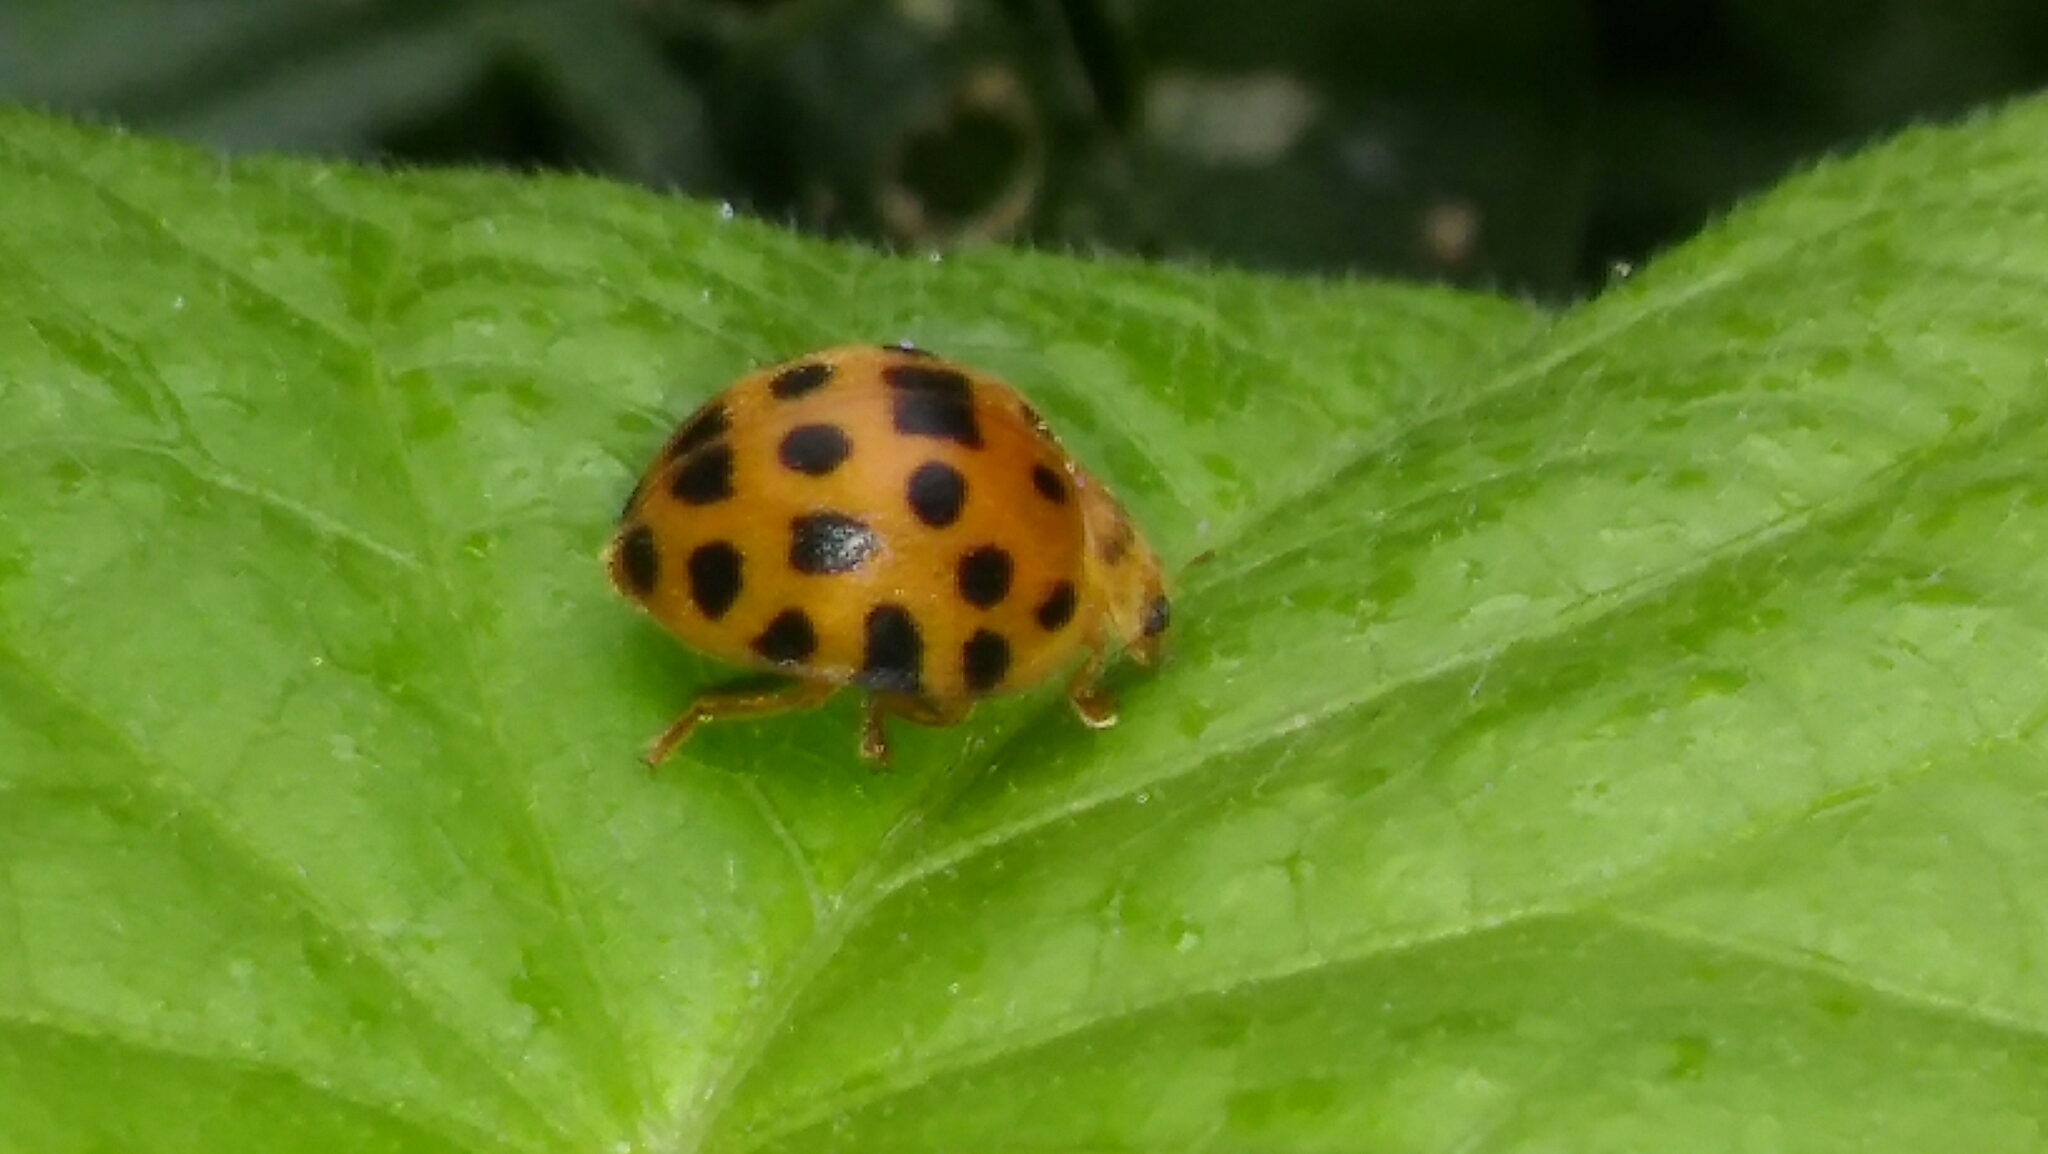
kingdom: Animalia
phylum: Arthropoda
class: Insecta
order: Coleoptera
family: Coccinellidae
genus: Henosepilachna
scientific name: Henosepilachna vigintioctopunctata
